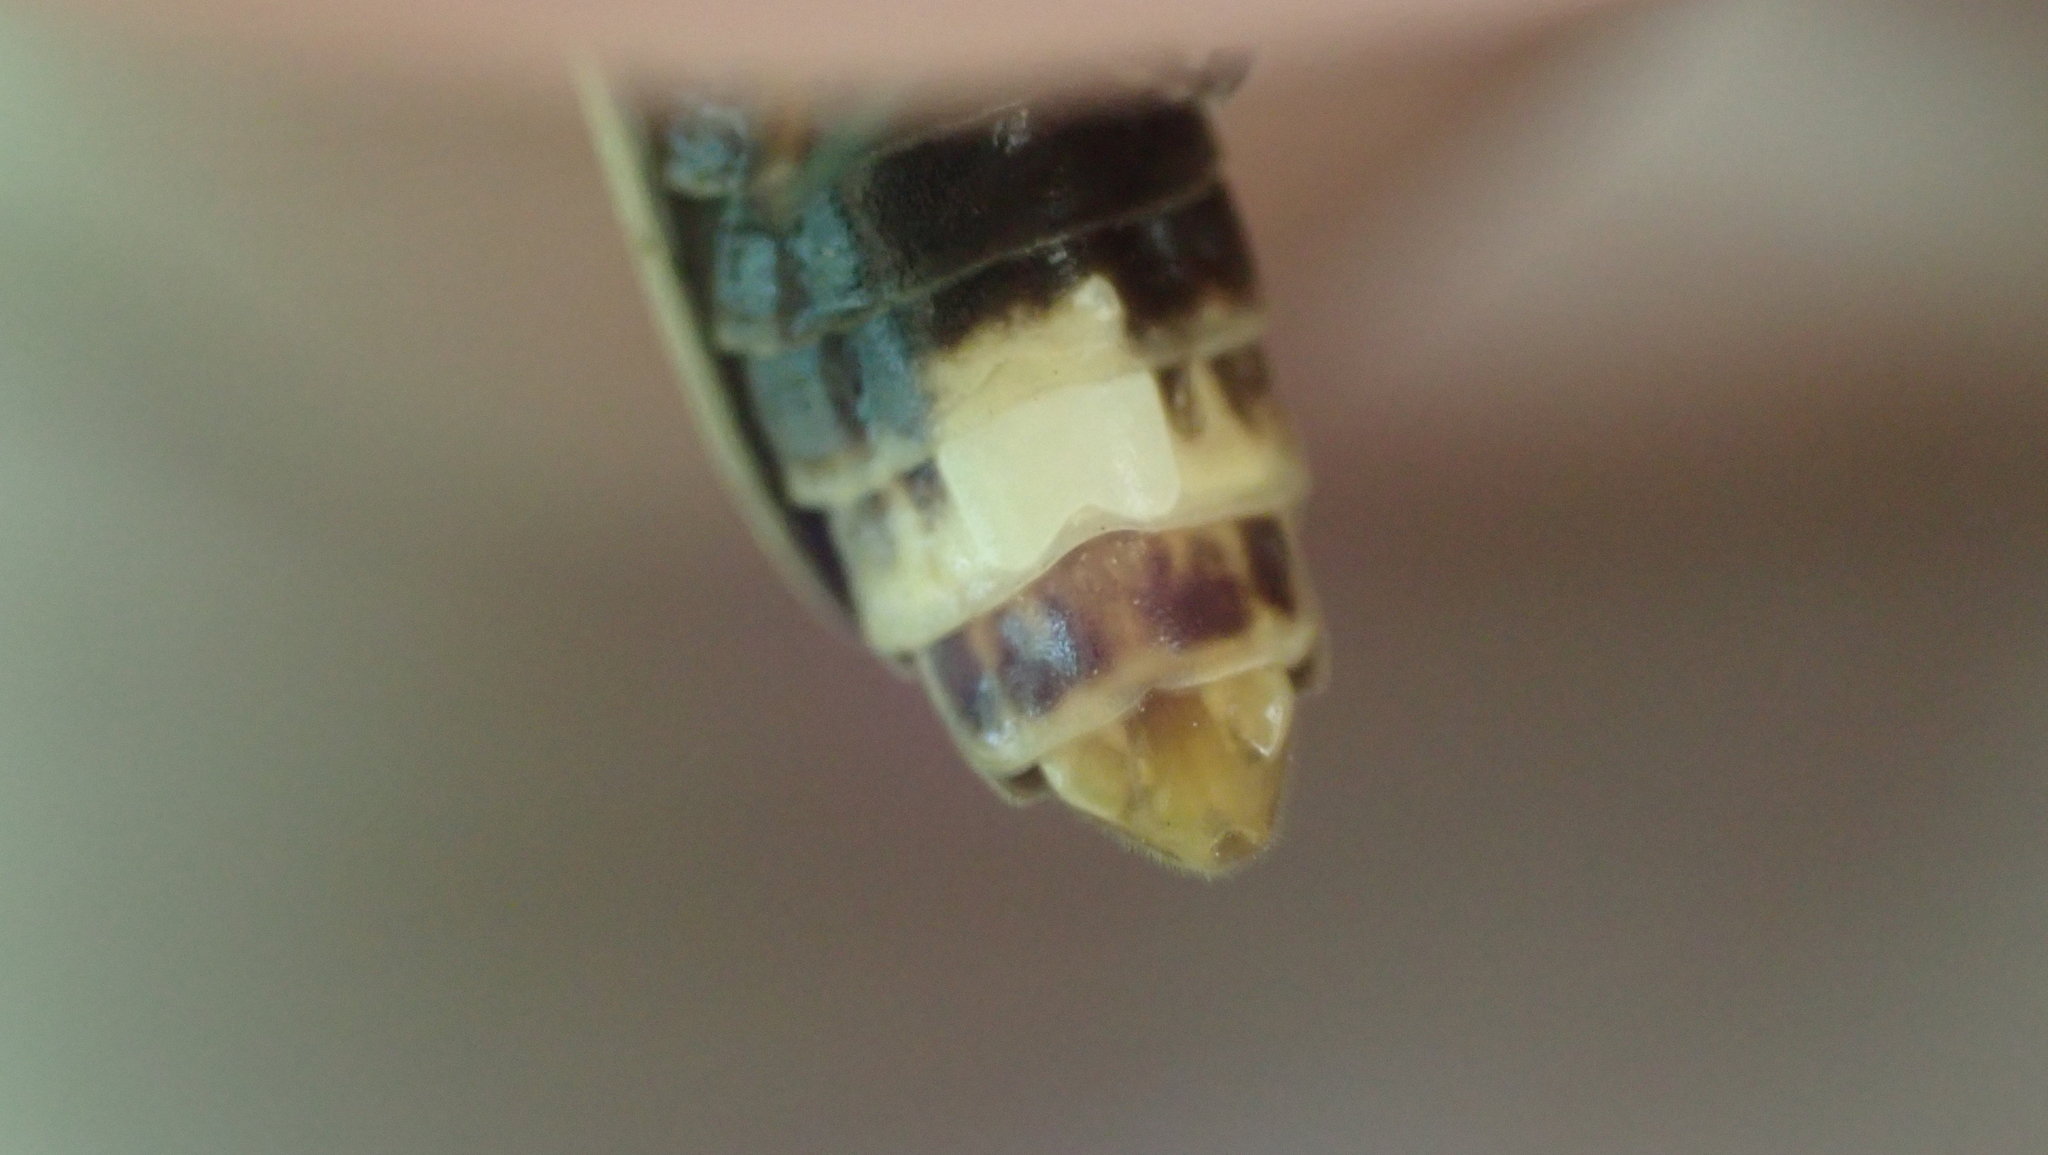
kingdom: Animalia
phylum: Arthropoda
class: Insecta
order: Coleoptera
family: Lampyridae
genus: Photinus
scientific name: Photinus pyralis
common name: Big dipper firefly
